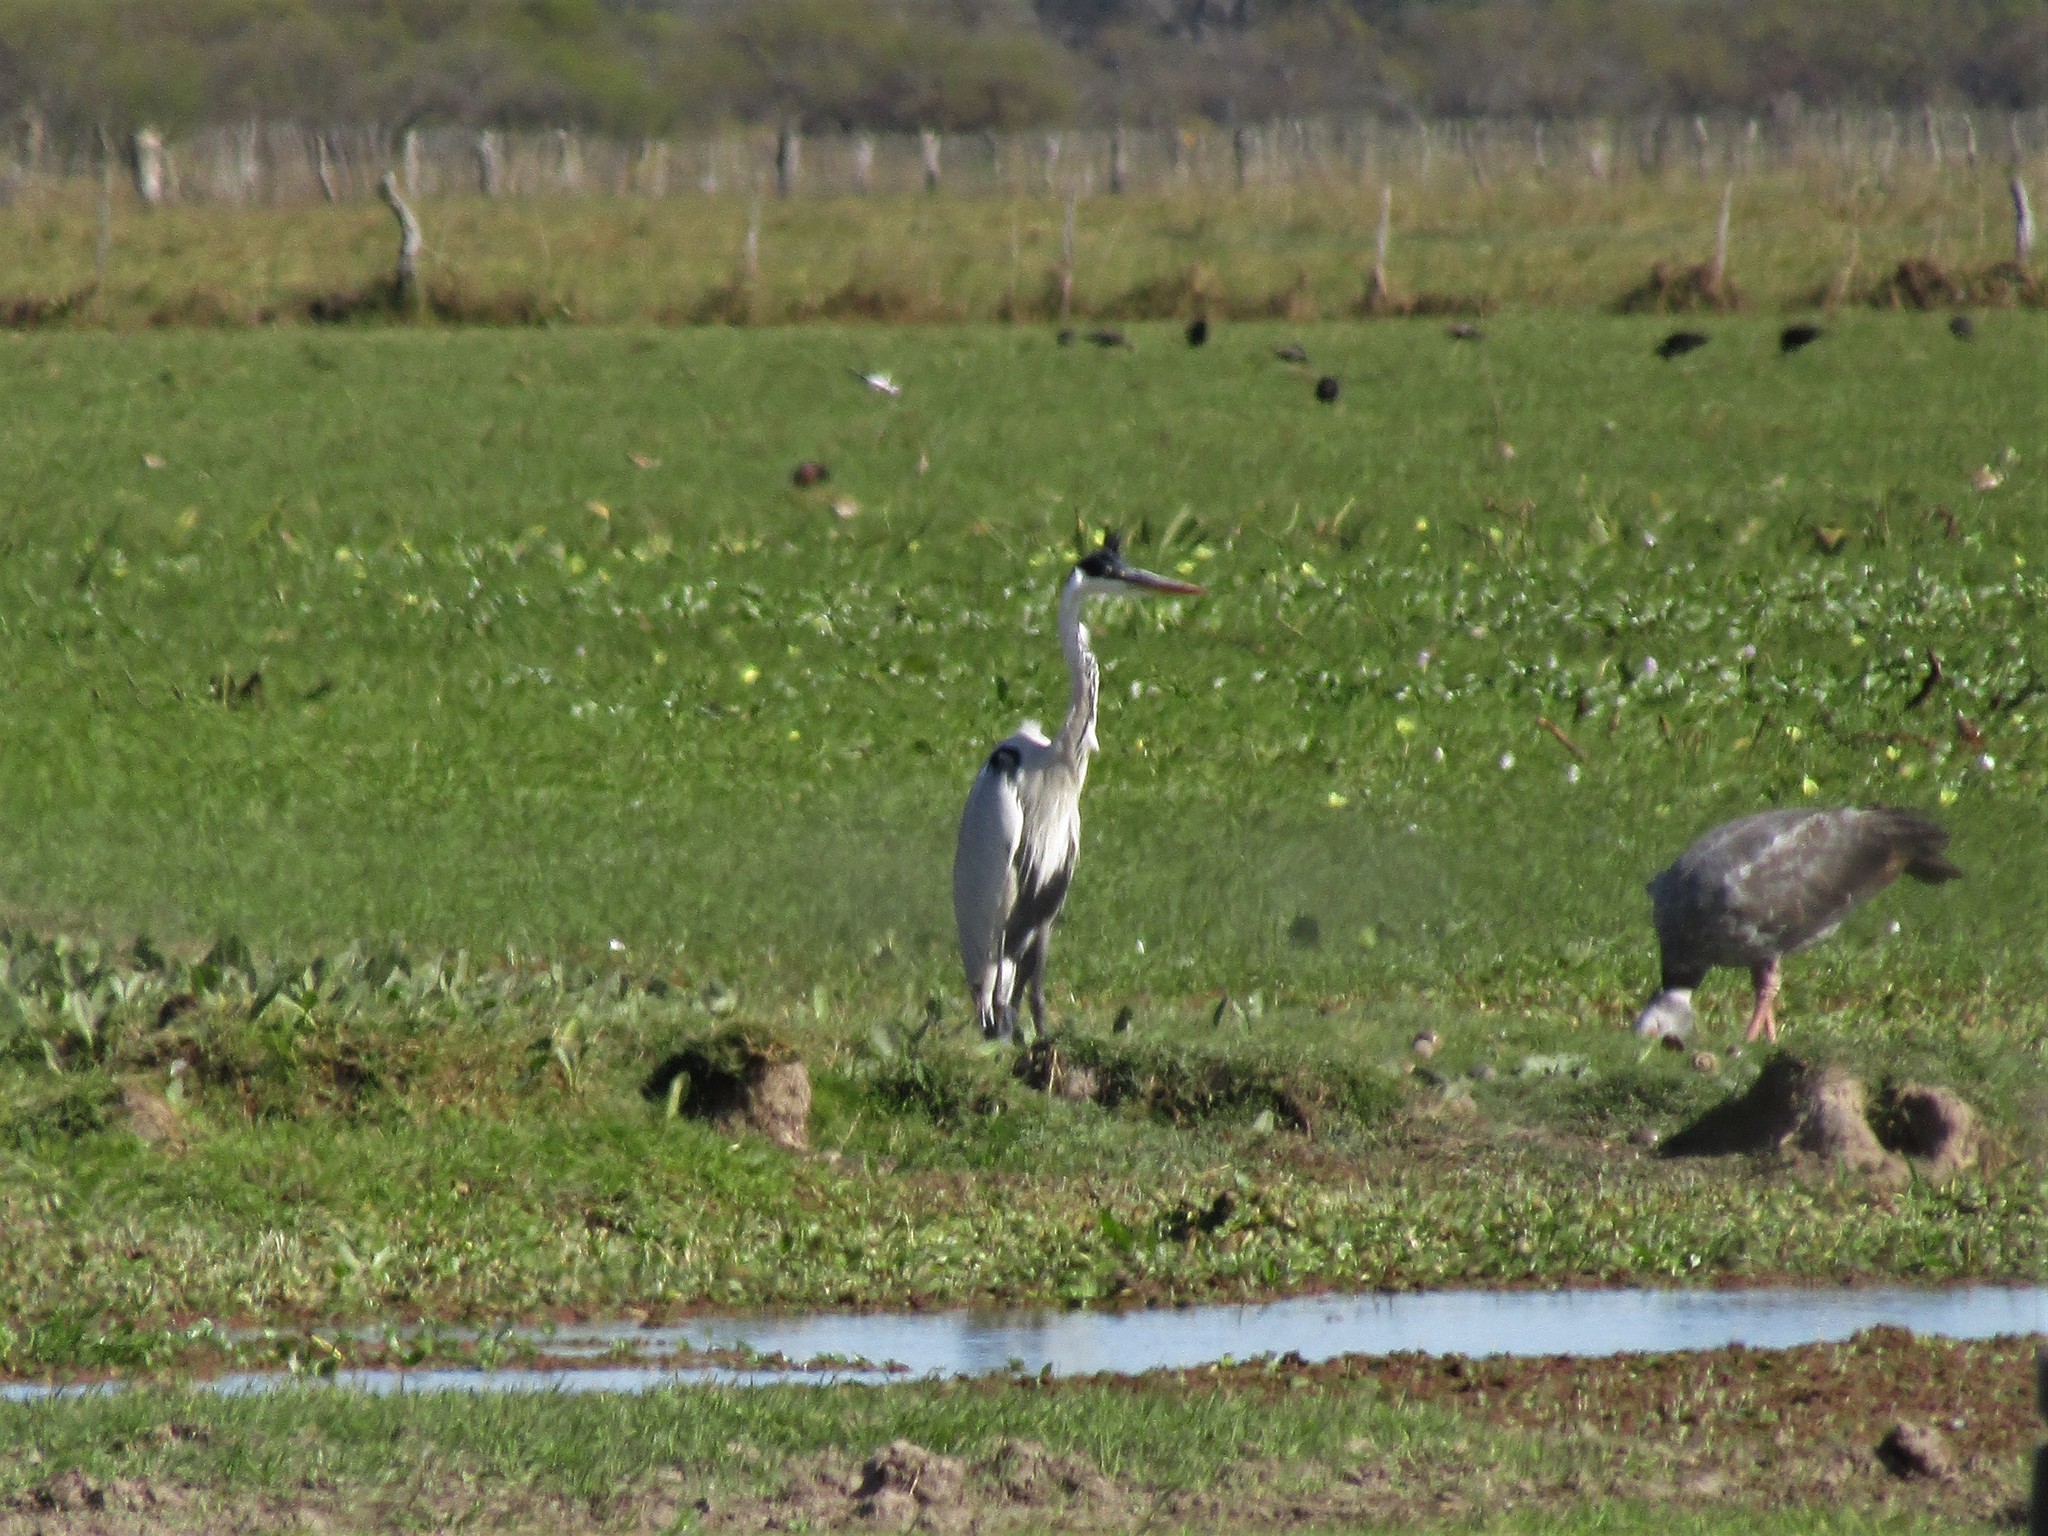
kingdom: Animalia
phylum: Chordata
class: Aves
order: Pelecaniformes
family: Ardeidae
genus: Ardea
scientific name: Ardea cocoi
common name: Cocoi heron
